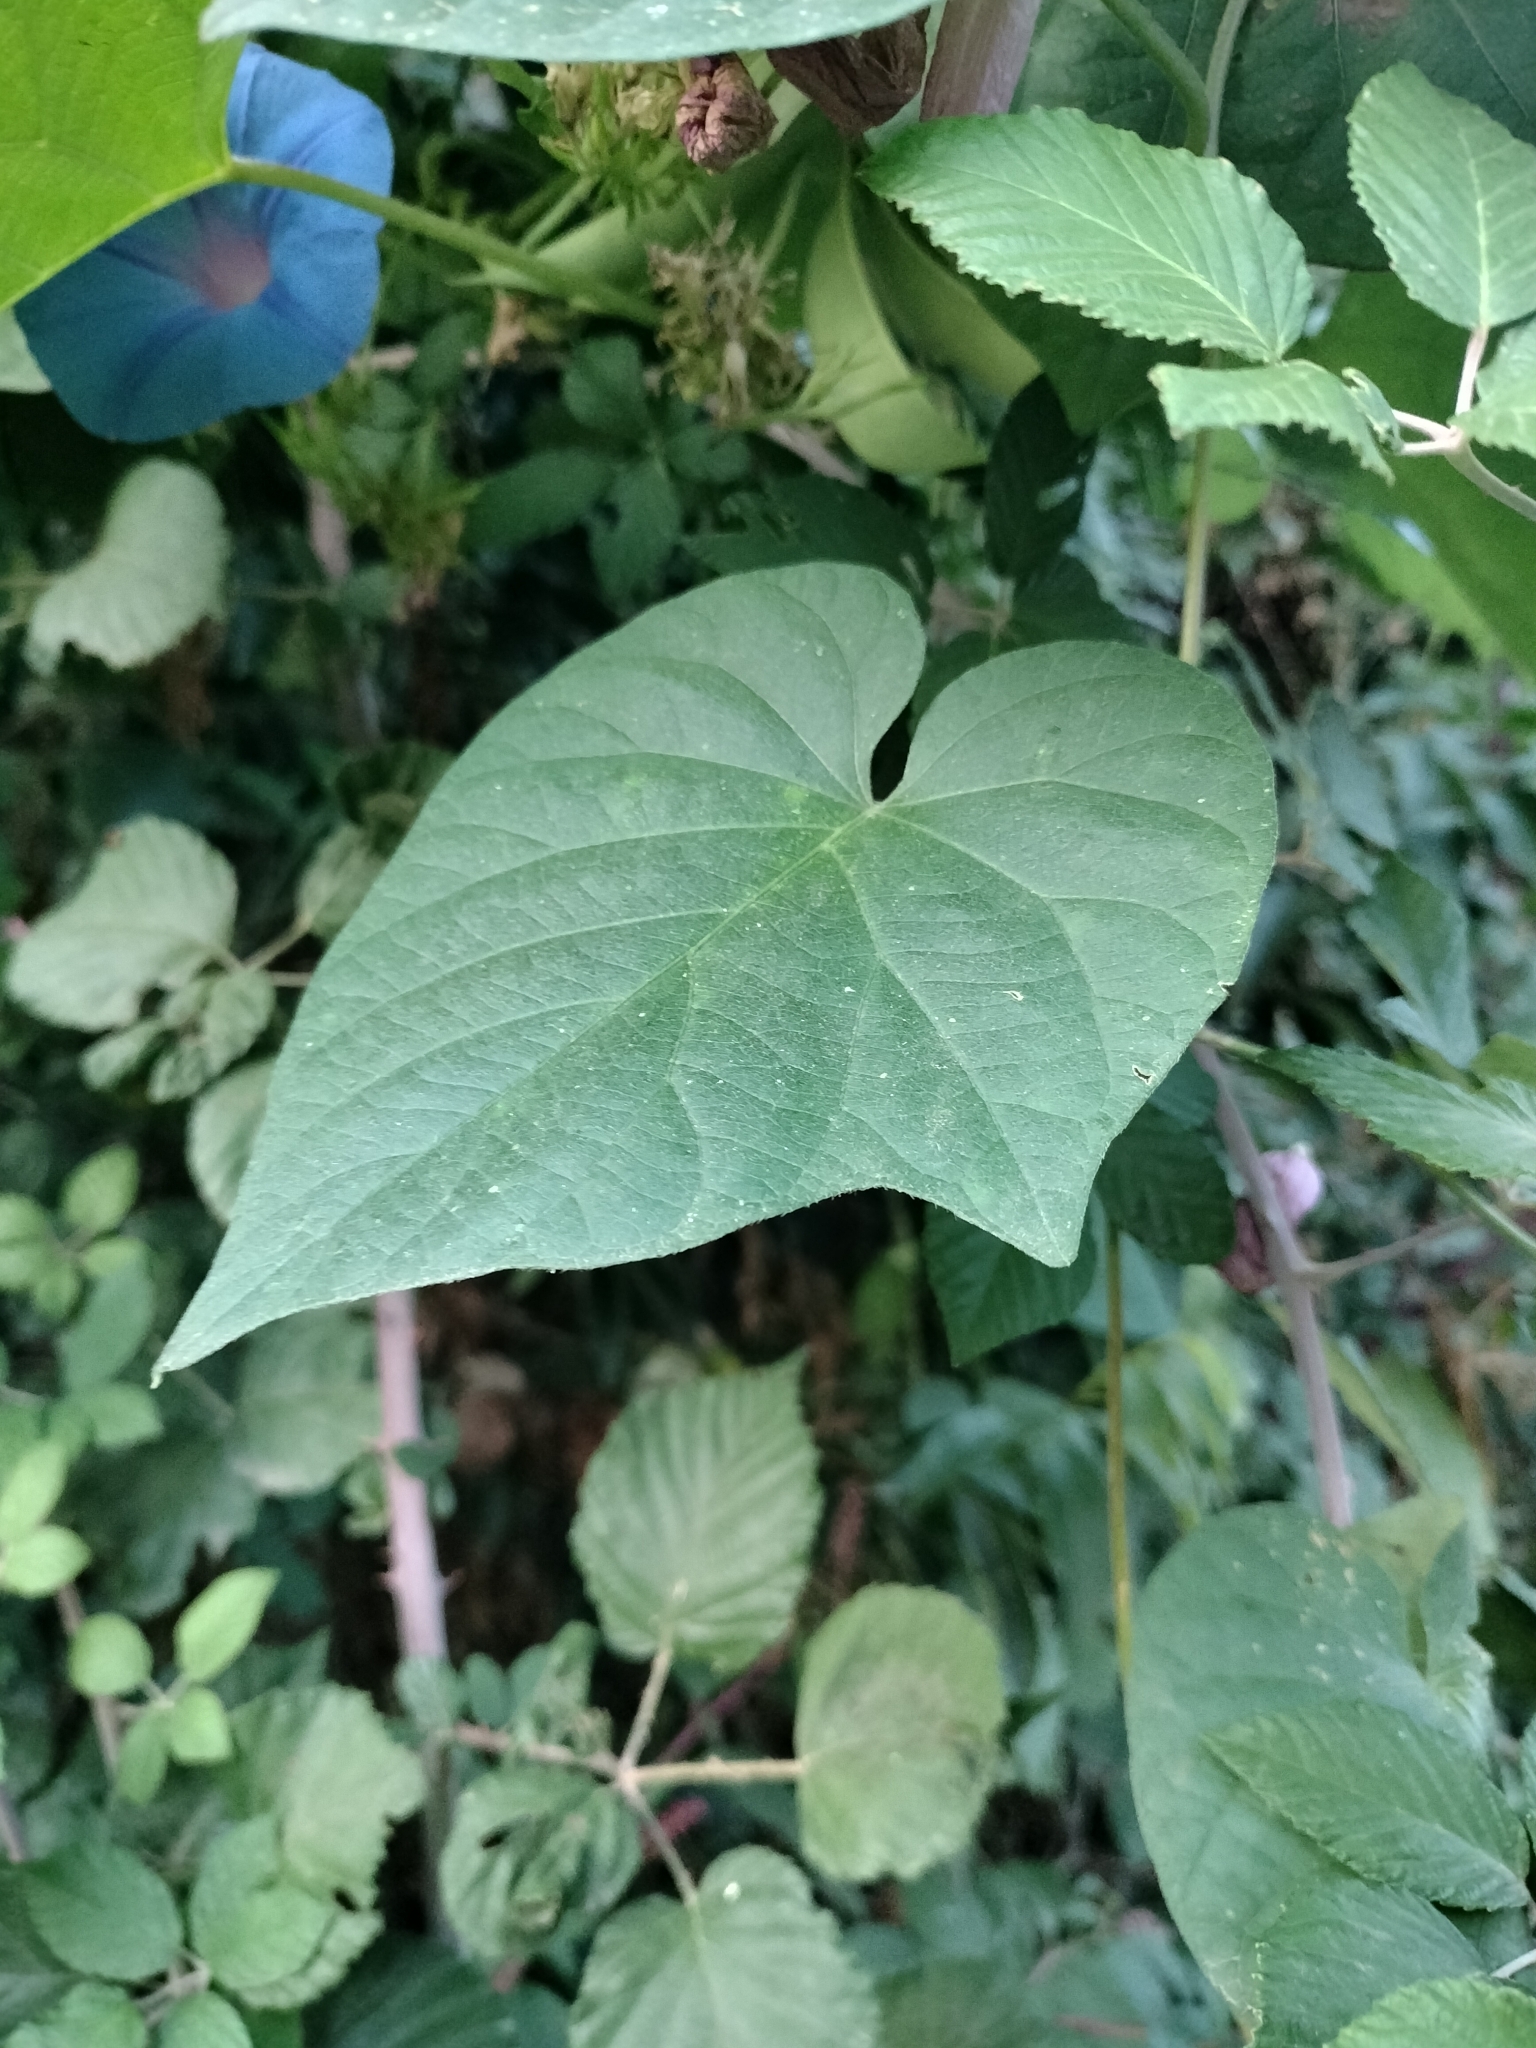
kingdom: Plantae
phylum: Tracheophyta
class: Magnoliopsida
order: Solanales
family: Convolvulaceae
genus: Ipomoea
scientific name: Ipomoea indica
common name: Blue dawnflower
